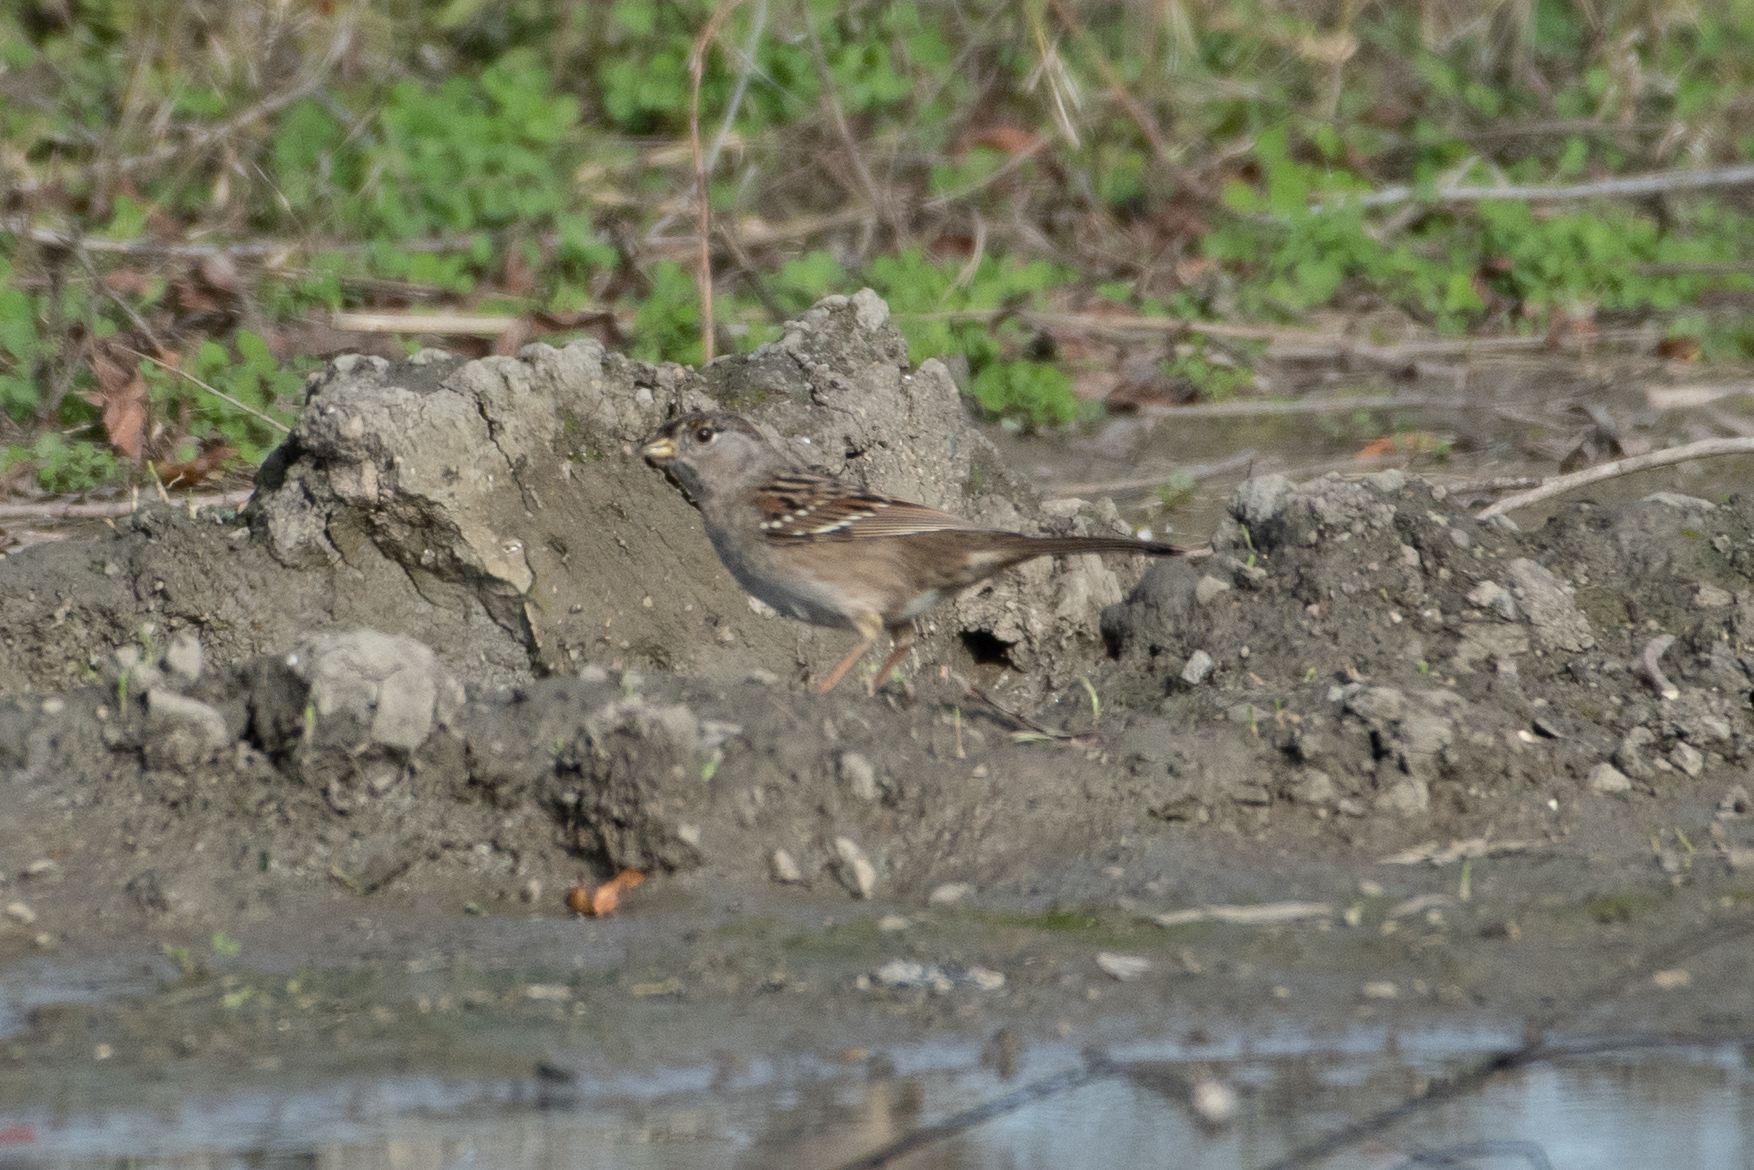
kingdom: Animalia
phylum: Chordata
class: Aves
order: Passeriformes
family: Passerellidae
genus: Zonotrichia
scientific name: Zonotrichia atricapilla
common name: Golden-crowned sparrow
